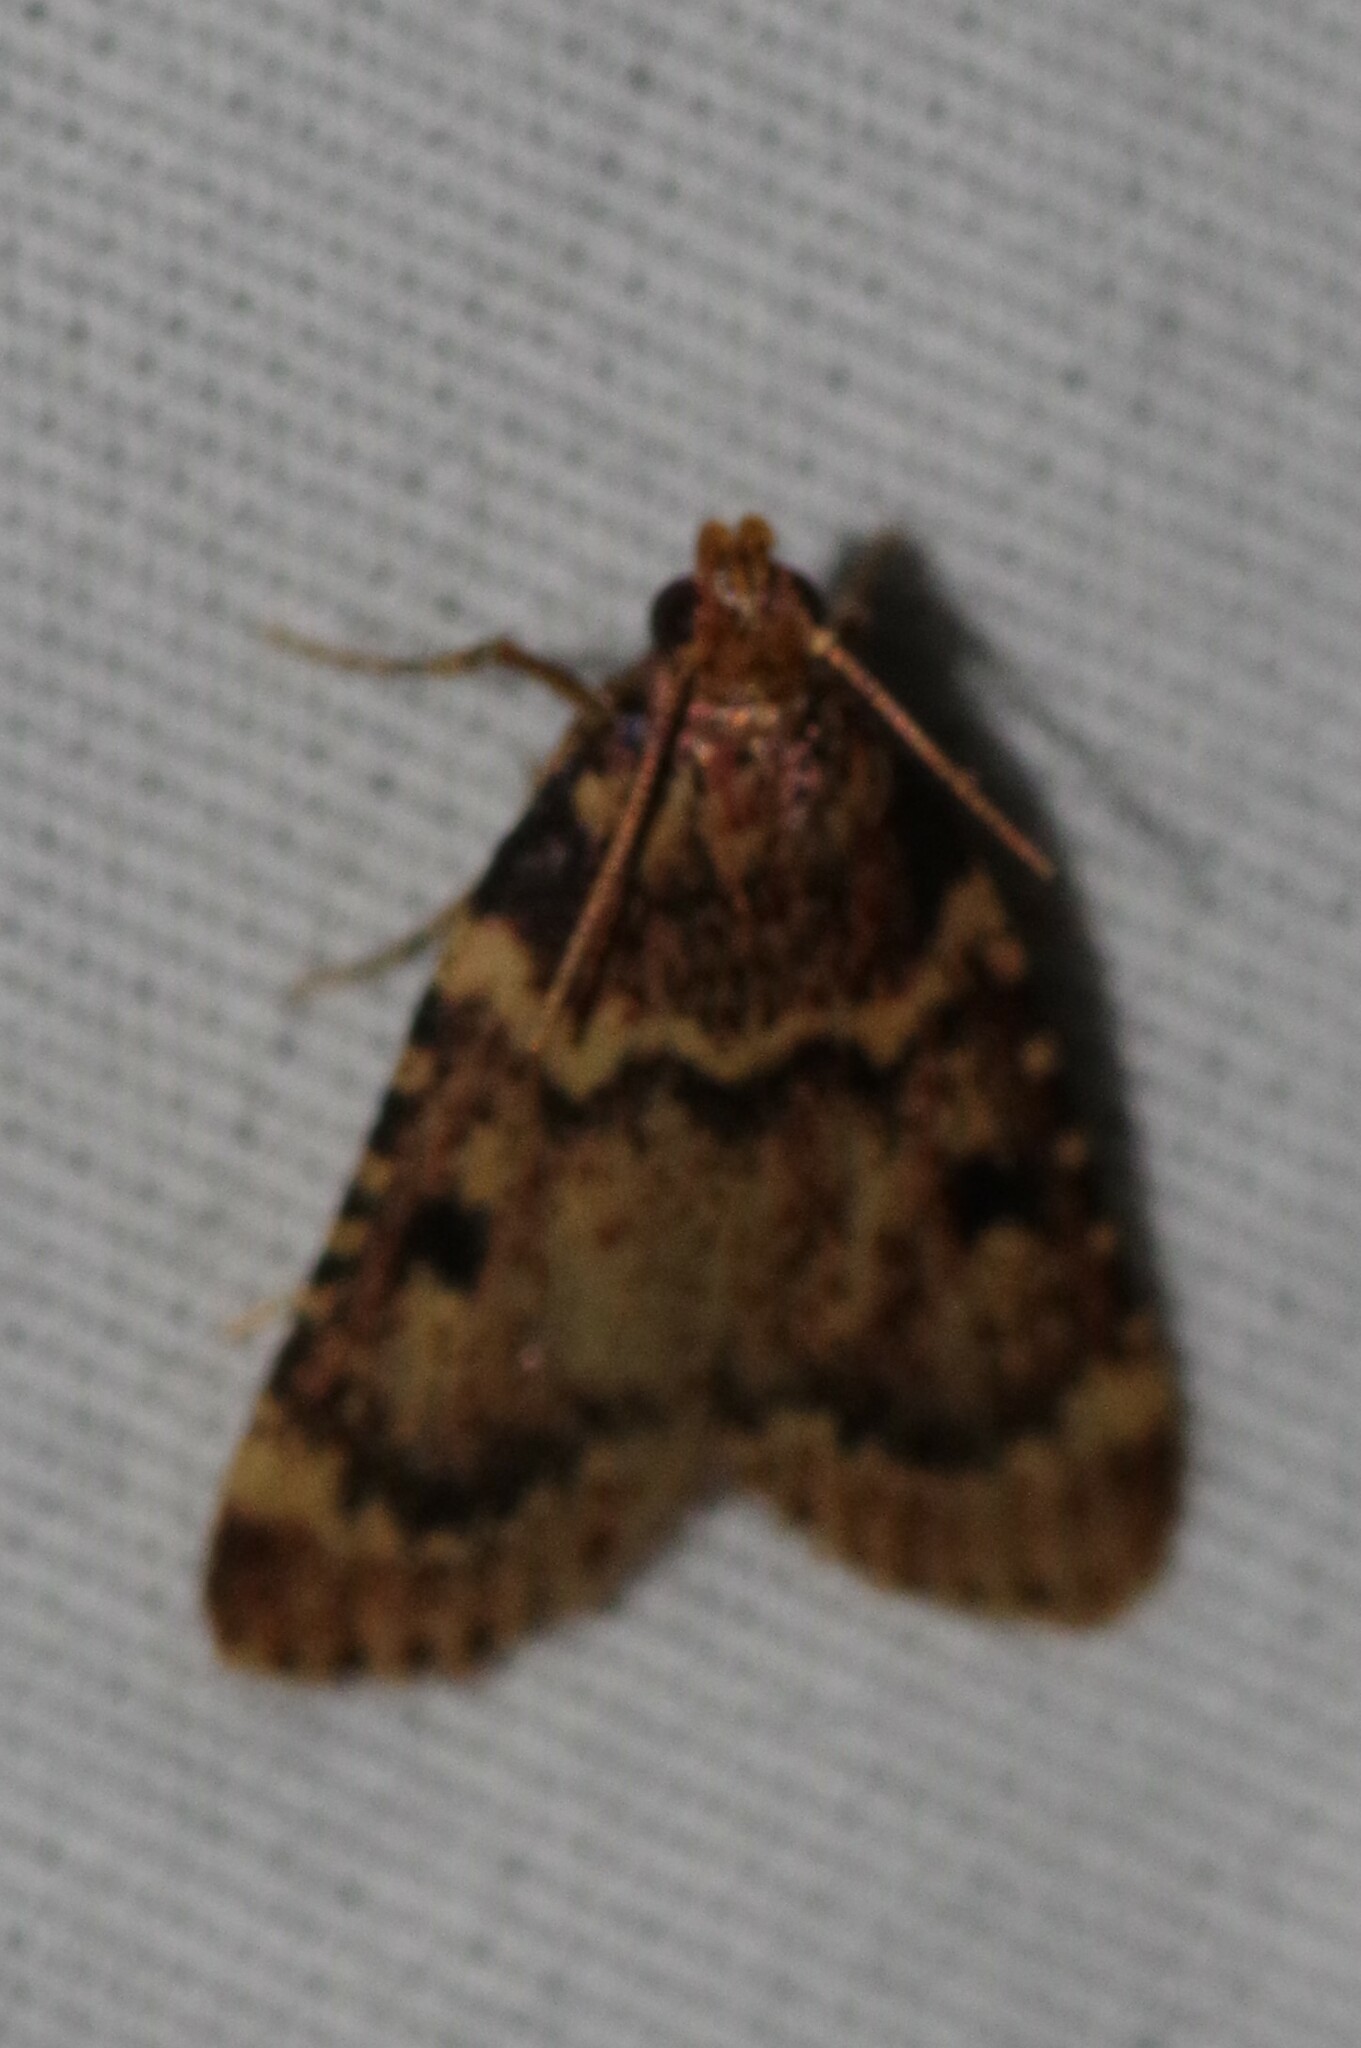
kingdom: Animalia
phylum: Arthropoda
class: Insecta
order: Lepidoptera
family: Pyralidae
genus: Aglossa
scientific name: Aglossa disciferalis
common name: Pink-masked pyralid moth
